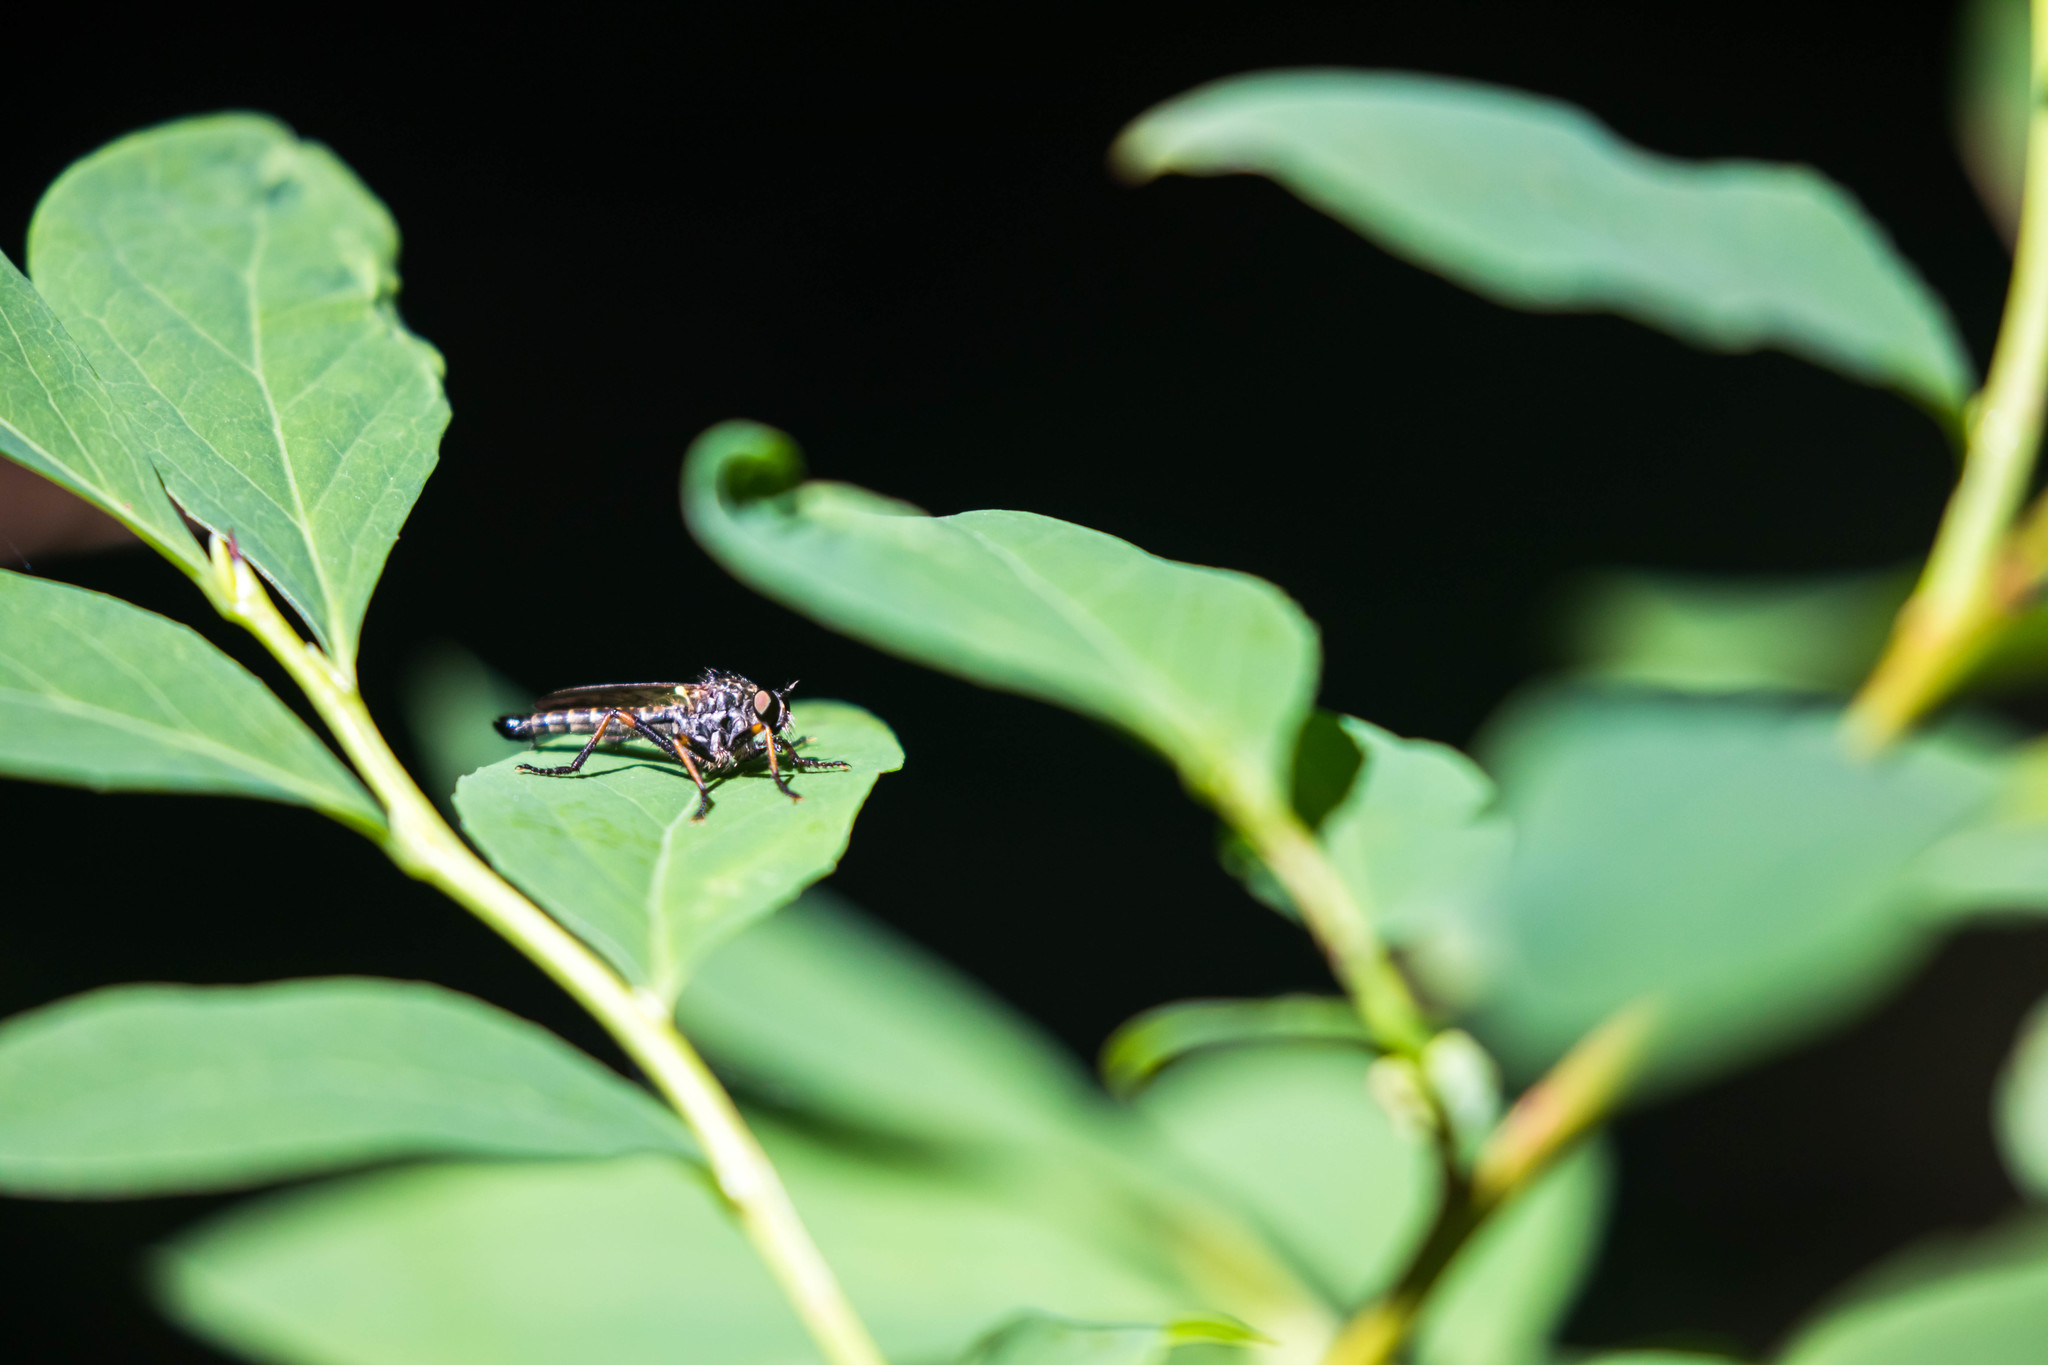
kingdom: Animalia
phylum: Arthropoda
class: Insecta
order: Diptera
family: Asilidae
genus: Nevadasilus
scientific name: Nevadasilus auriannulatus
